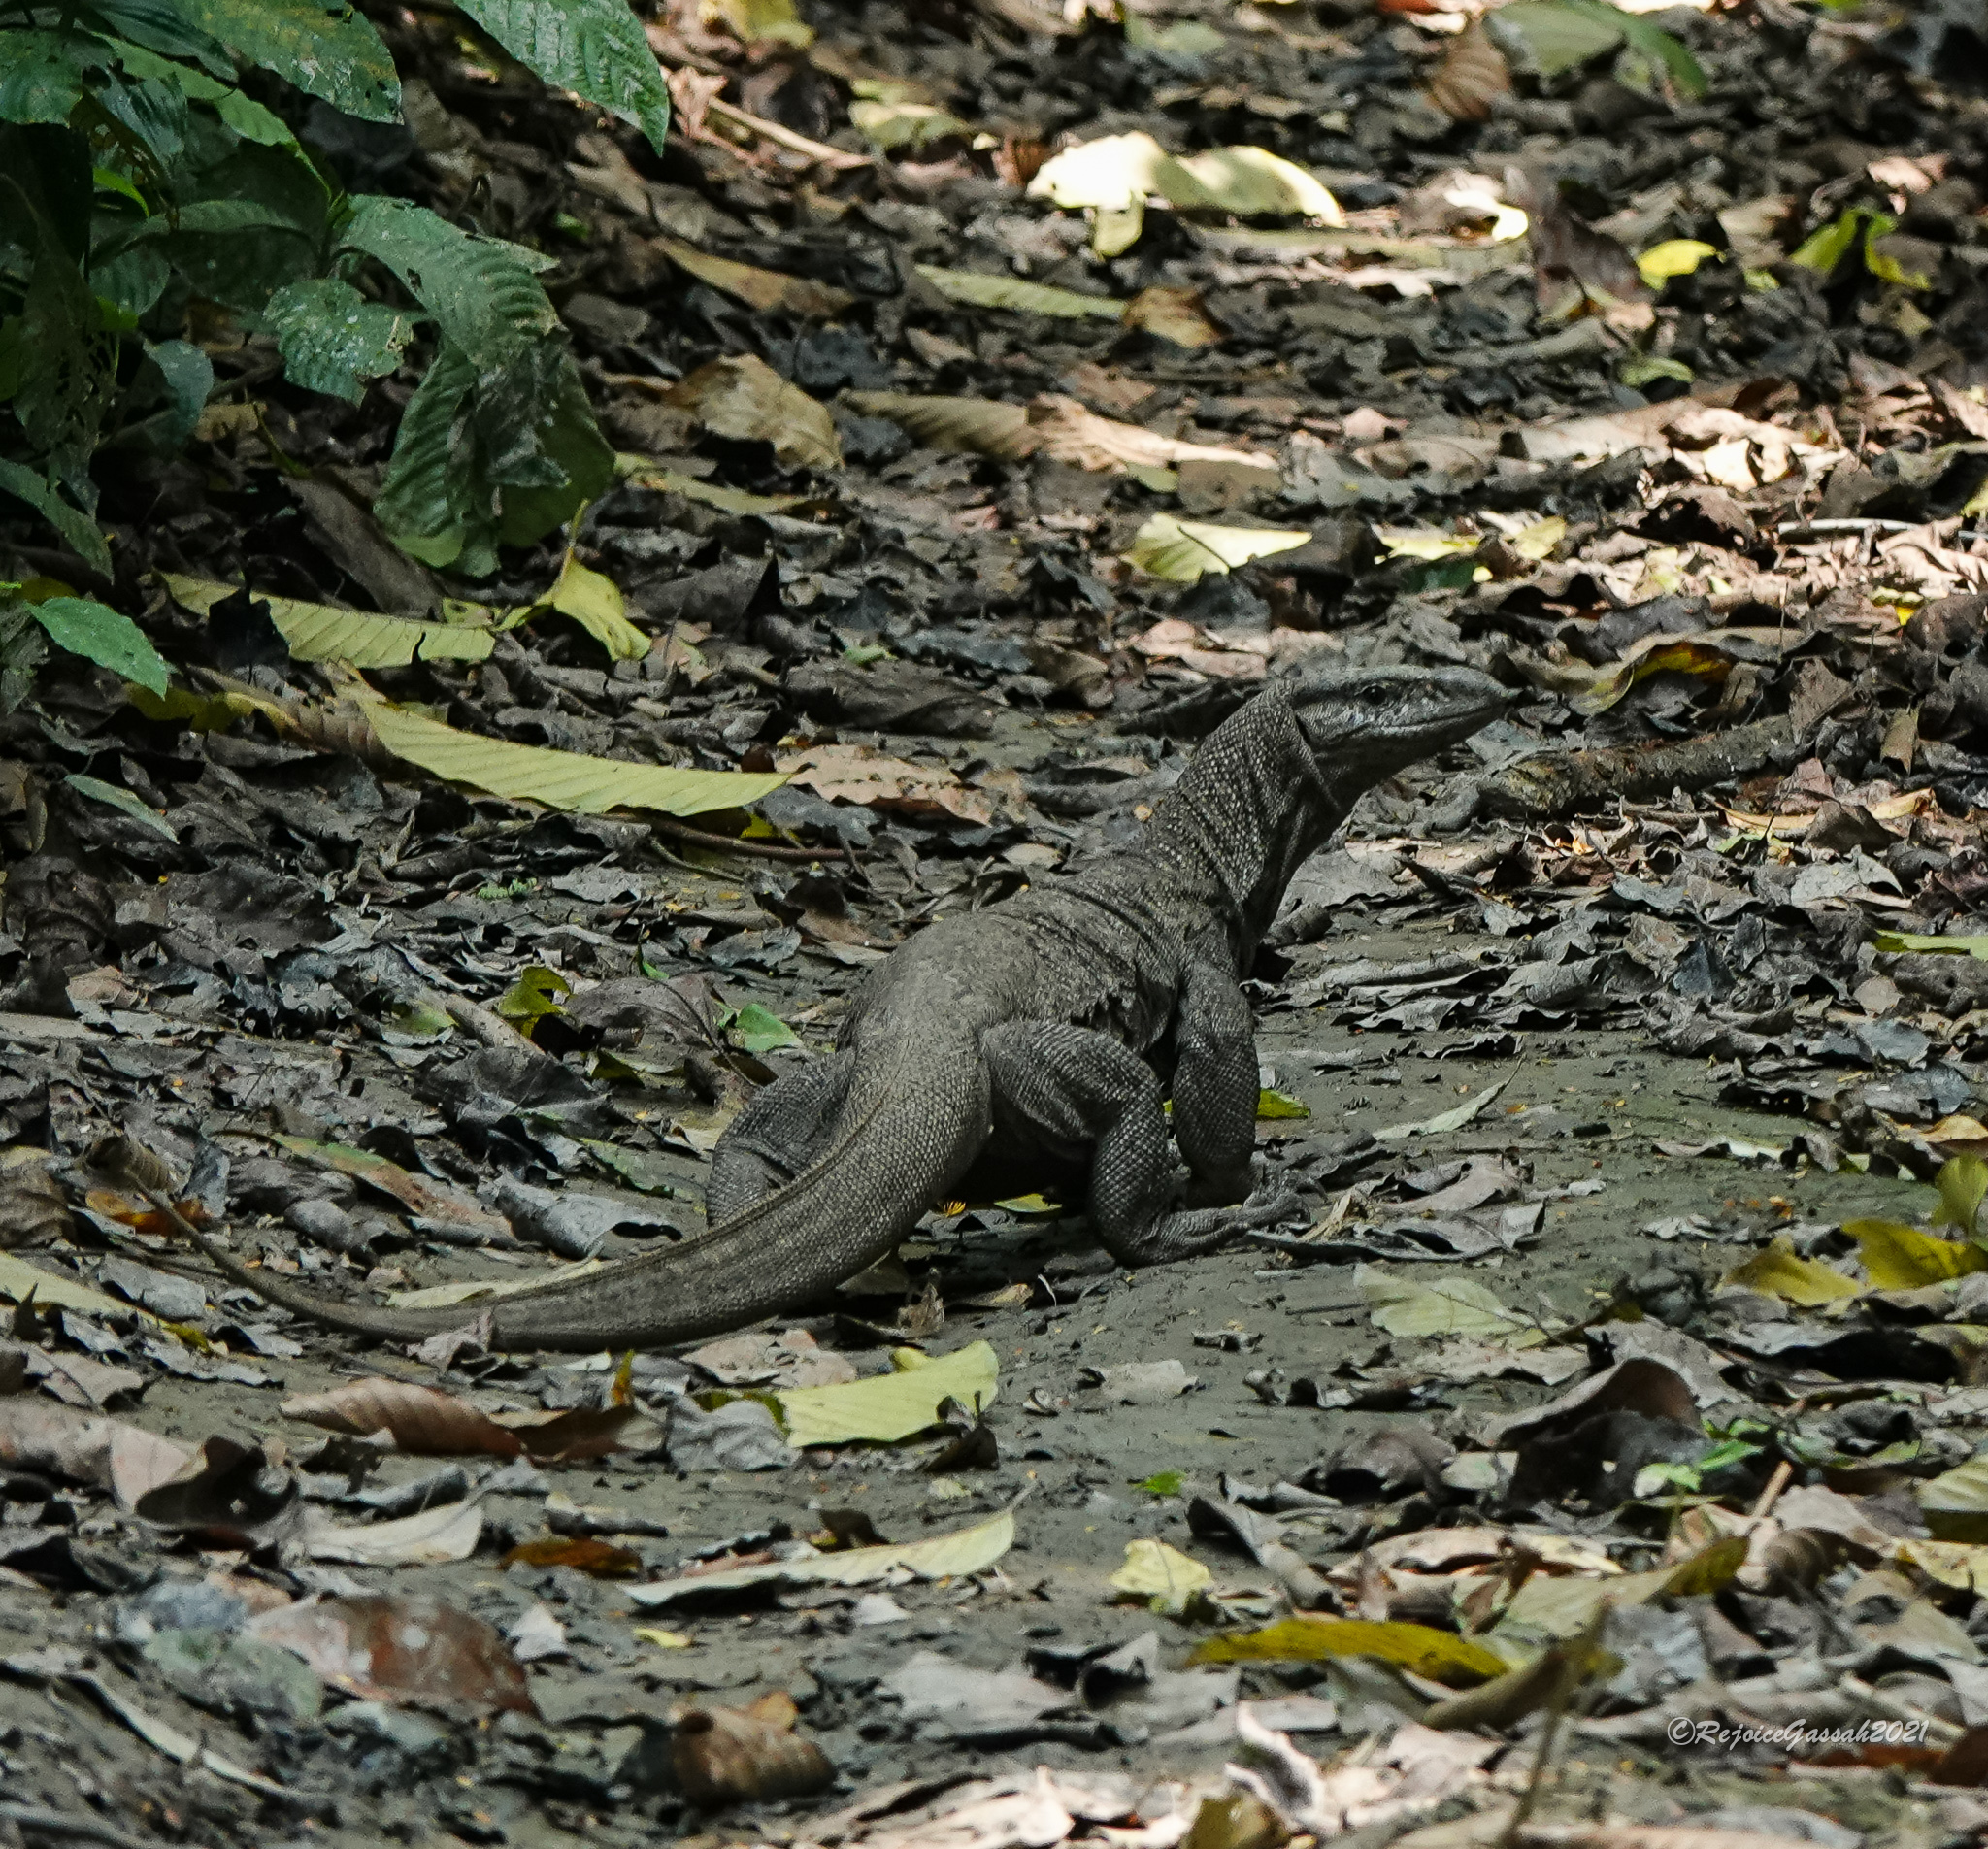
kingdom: Animalia
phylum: Chordata
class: Squamata
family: Varanidae
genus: Varanus
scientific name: Varanus bengalensis
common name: Bengal monitor
